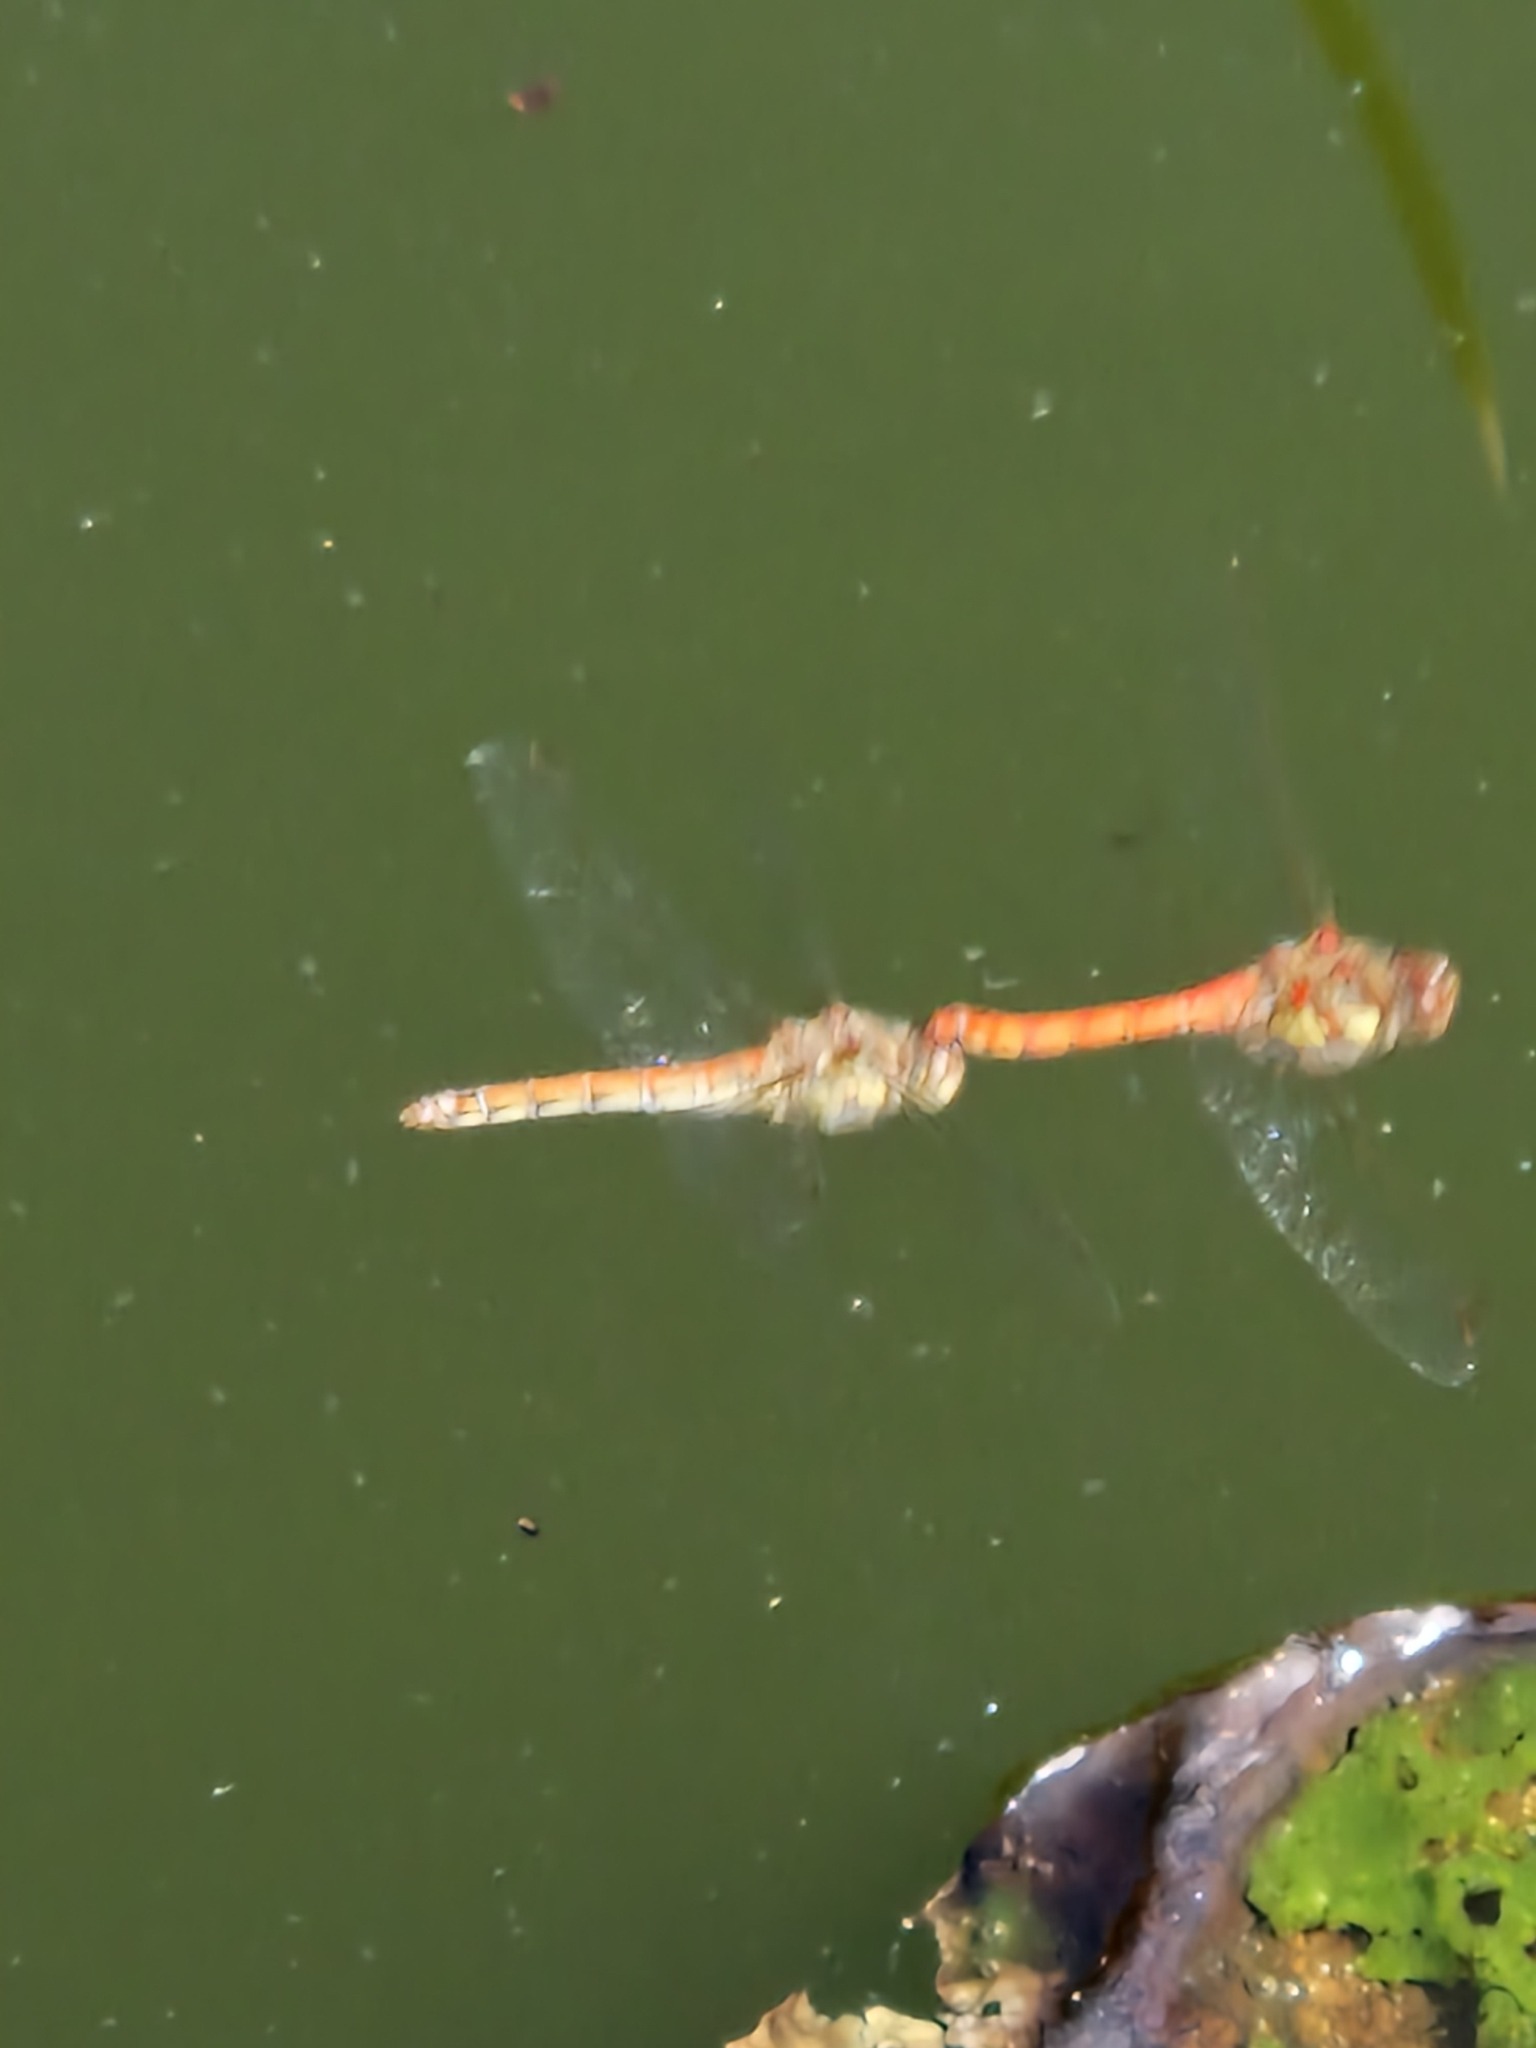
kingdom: Animalia
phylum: Arthropoda
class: Insecta
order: Odonata
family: Libellulidae
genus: Sympetrum
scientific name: Sympetrum striolatum
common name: Common darter
